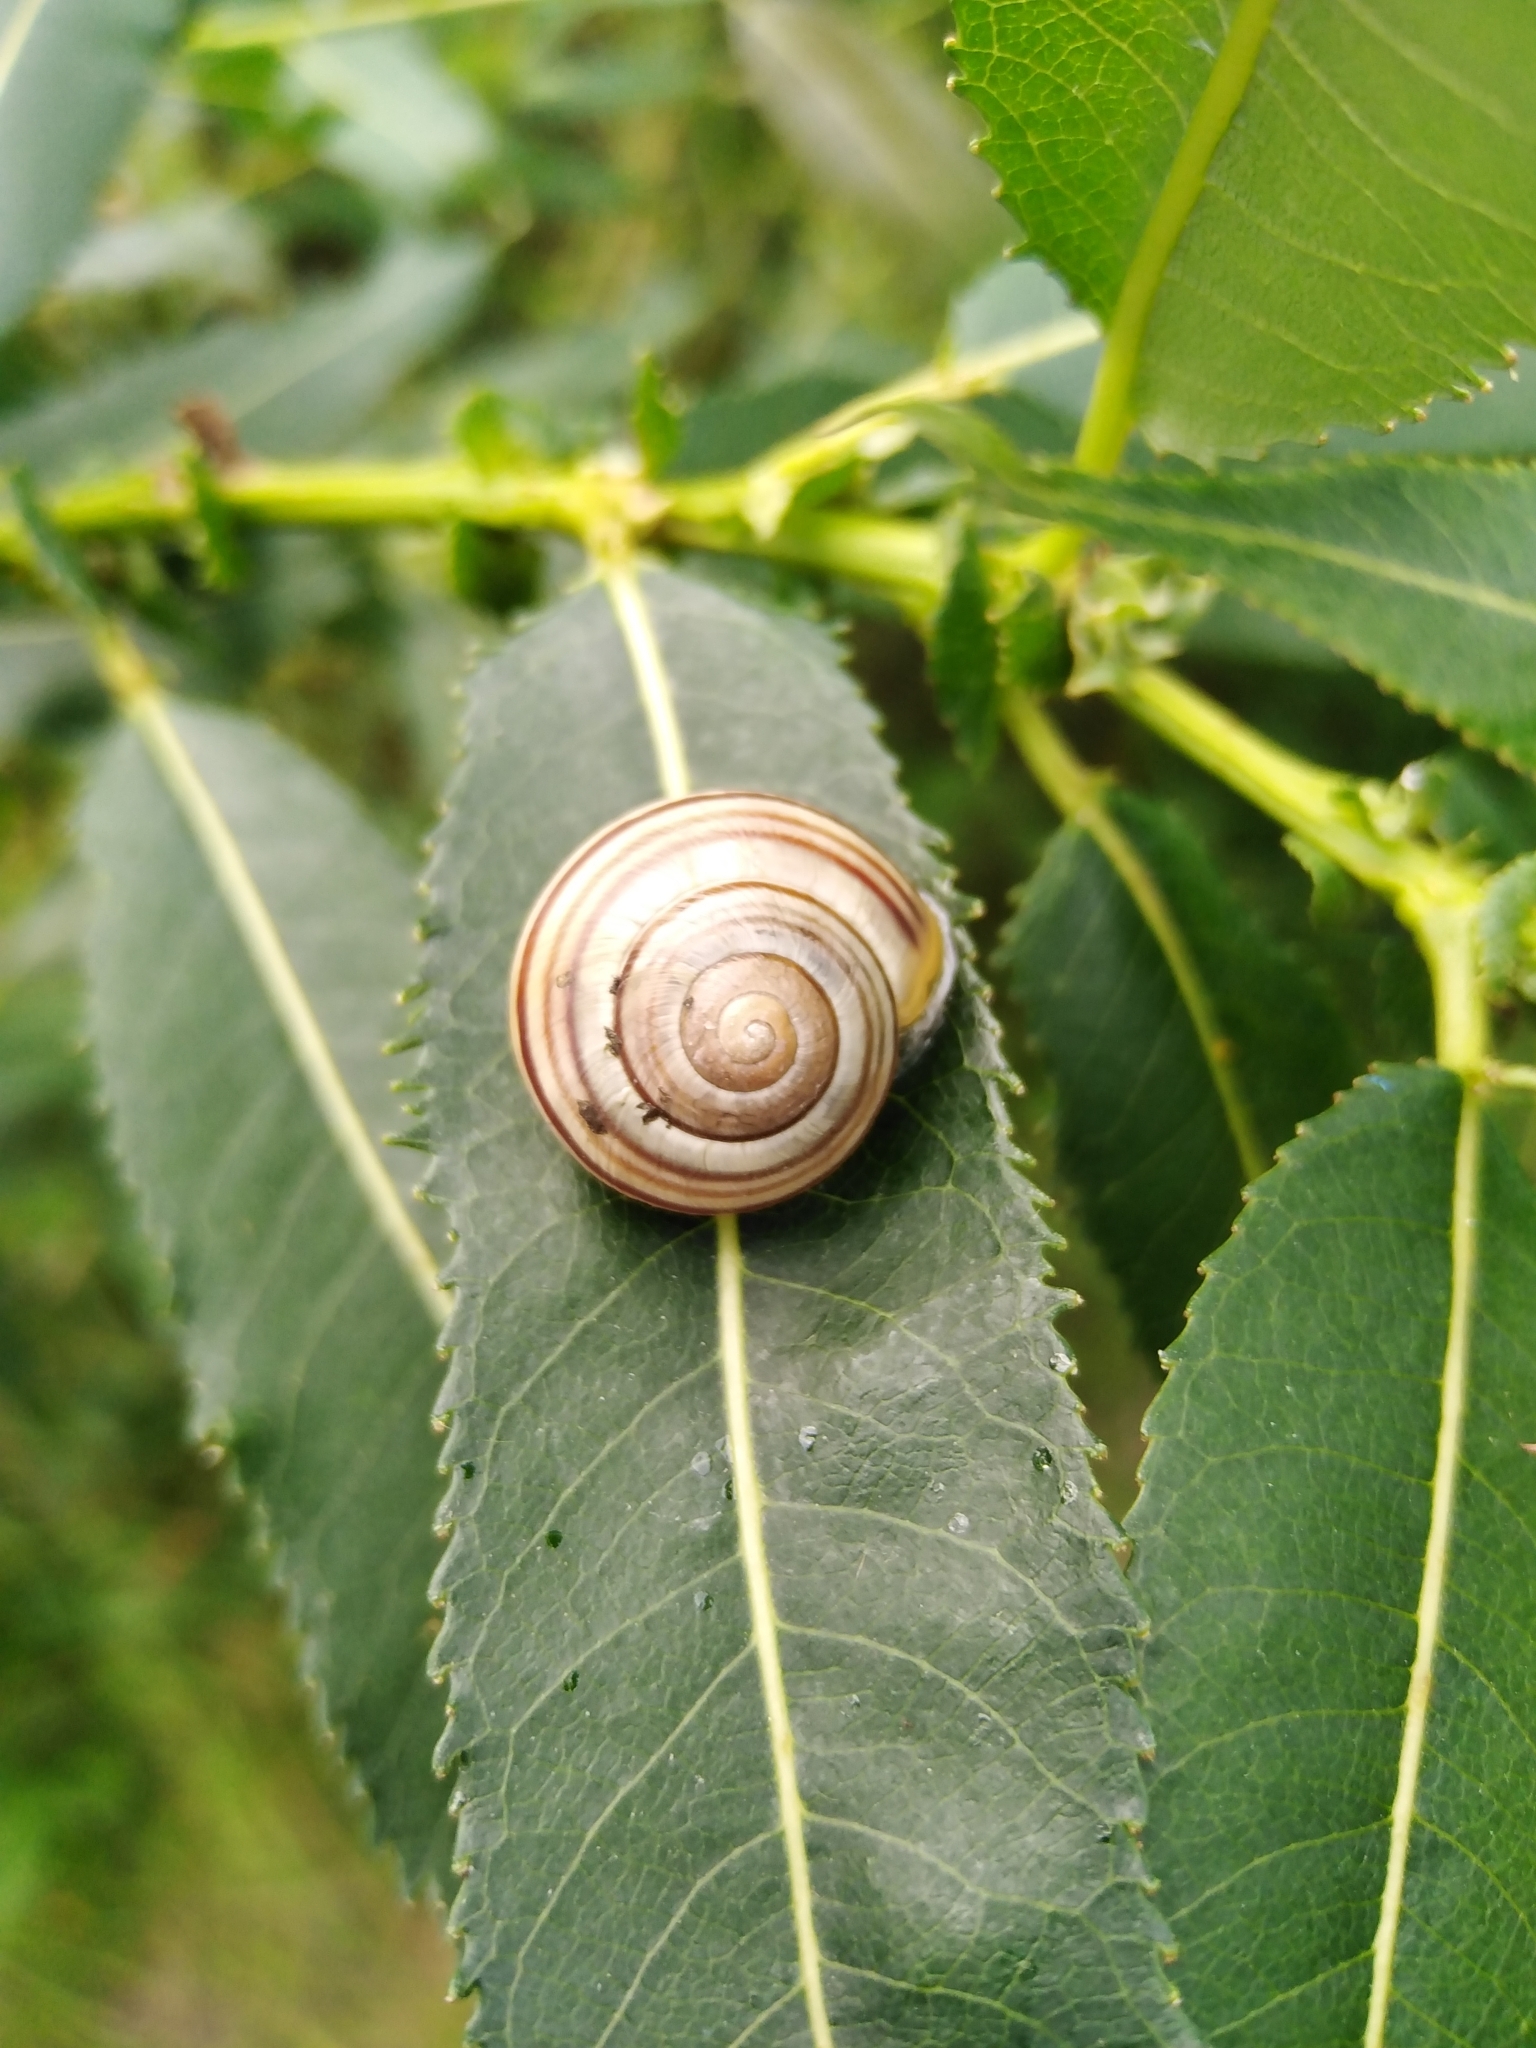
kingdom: Animalia
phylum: Mollusca
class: Gastropoda
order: Stylommatophora
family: Helicidae
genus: Cepaea
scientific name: Cepaea
